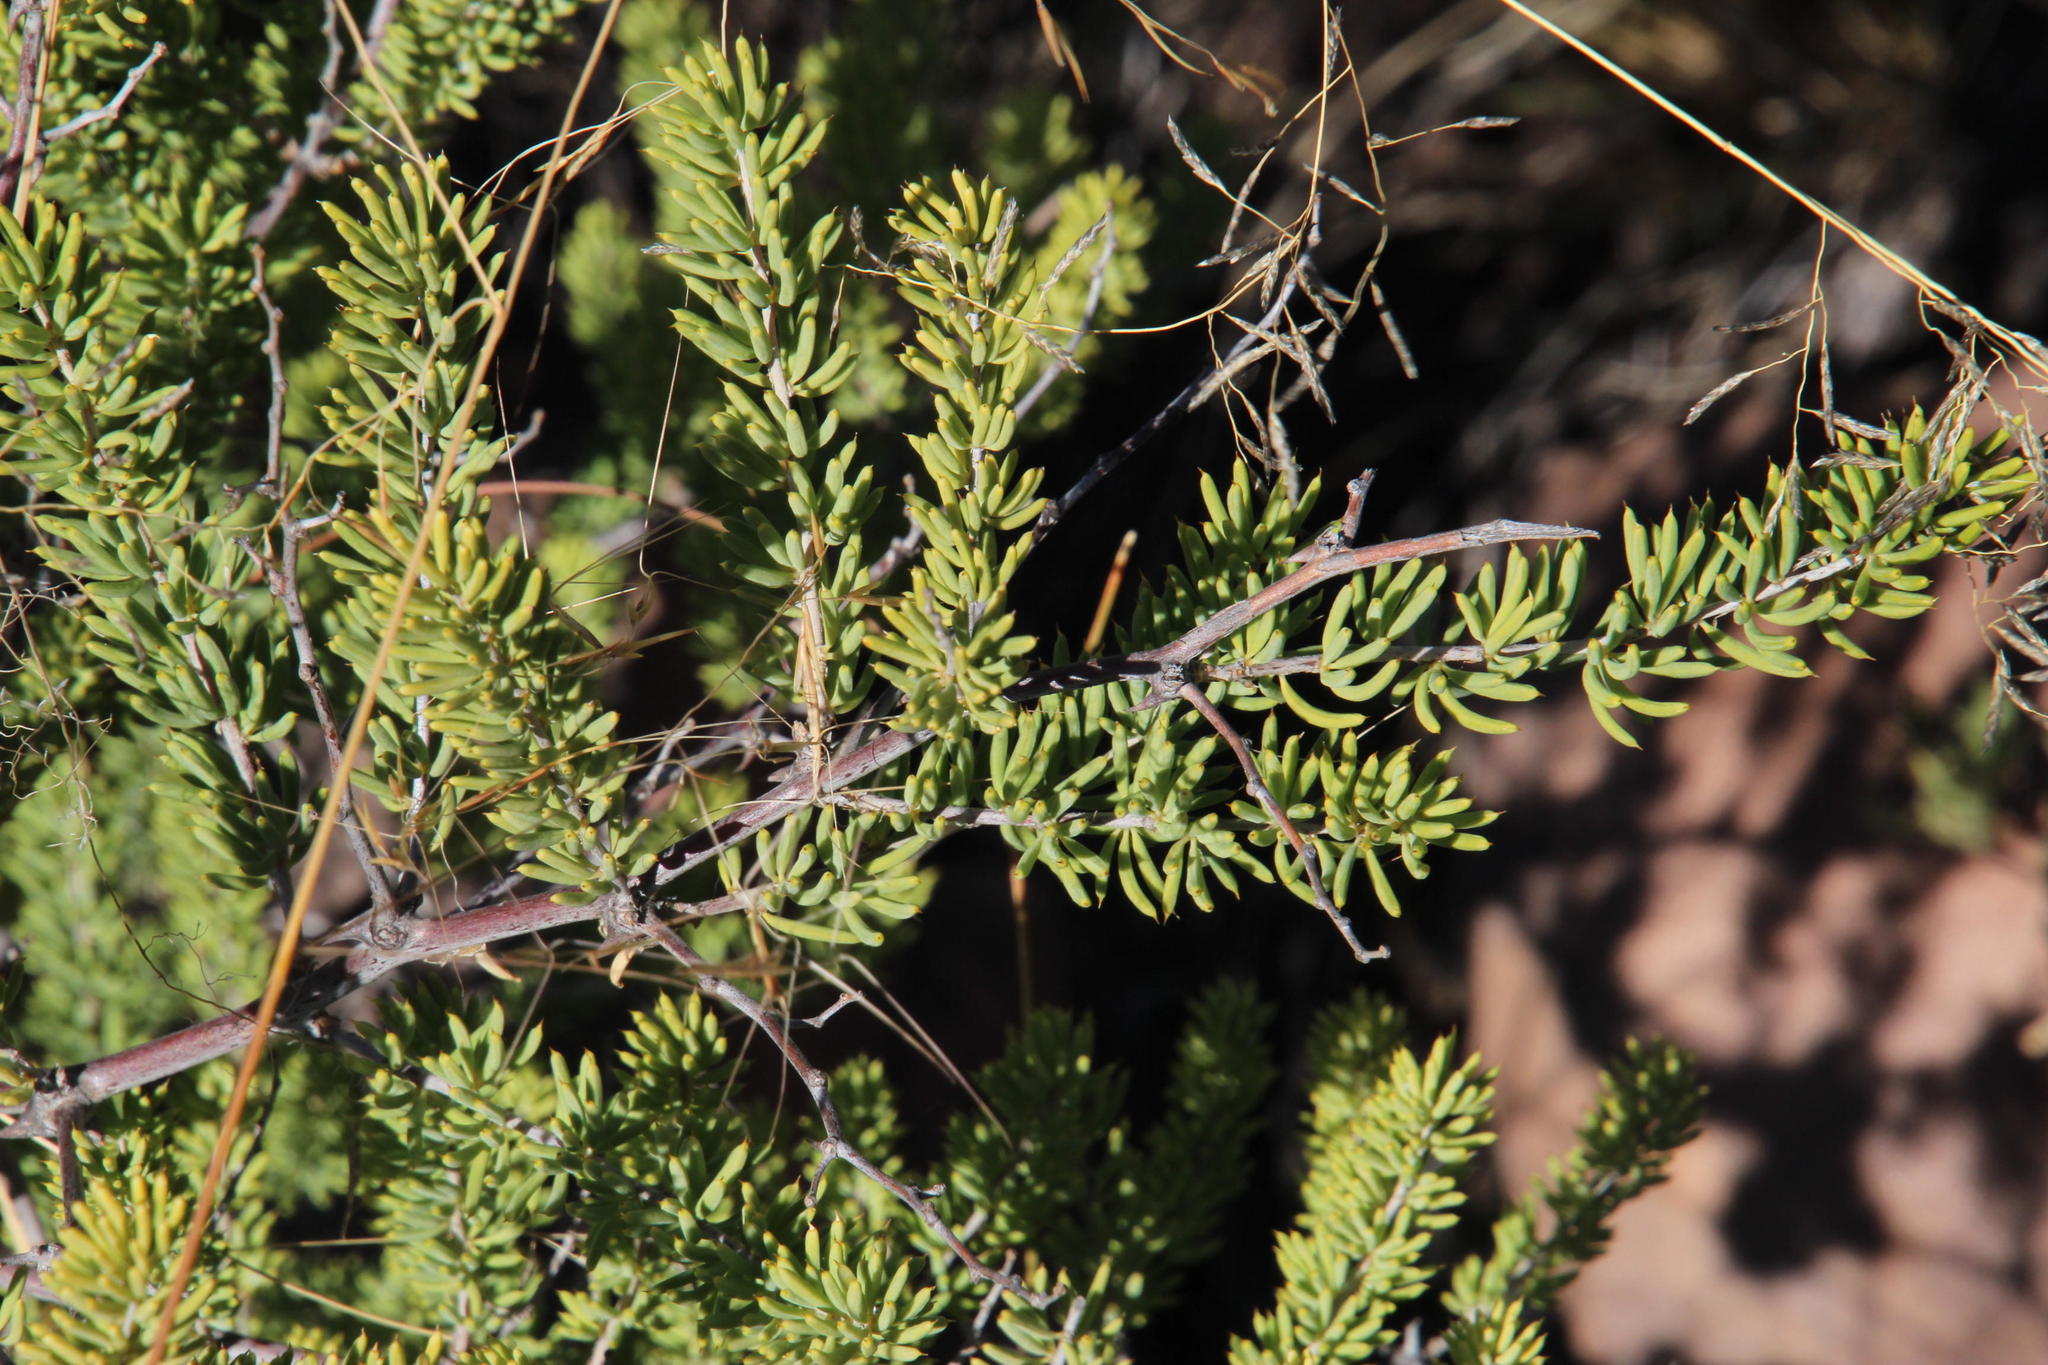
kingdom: Plantae
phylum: Tracheophyta
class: Liliopsida
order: Asparagales
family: Asparagaceae
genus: Asparagus
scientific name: Asparagus mucronatus
